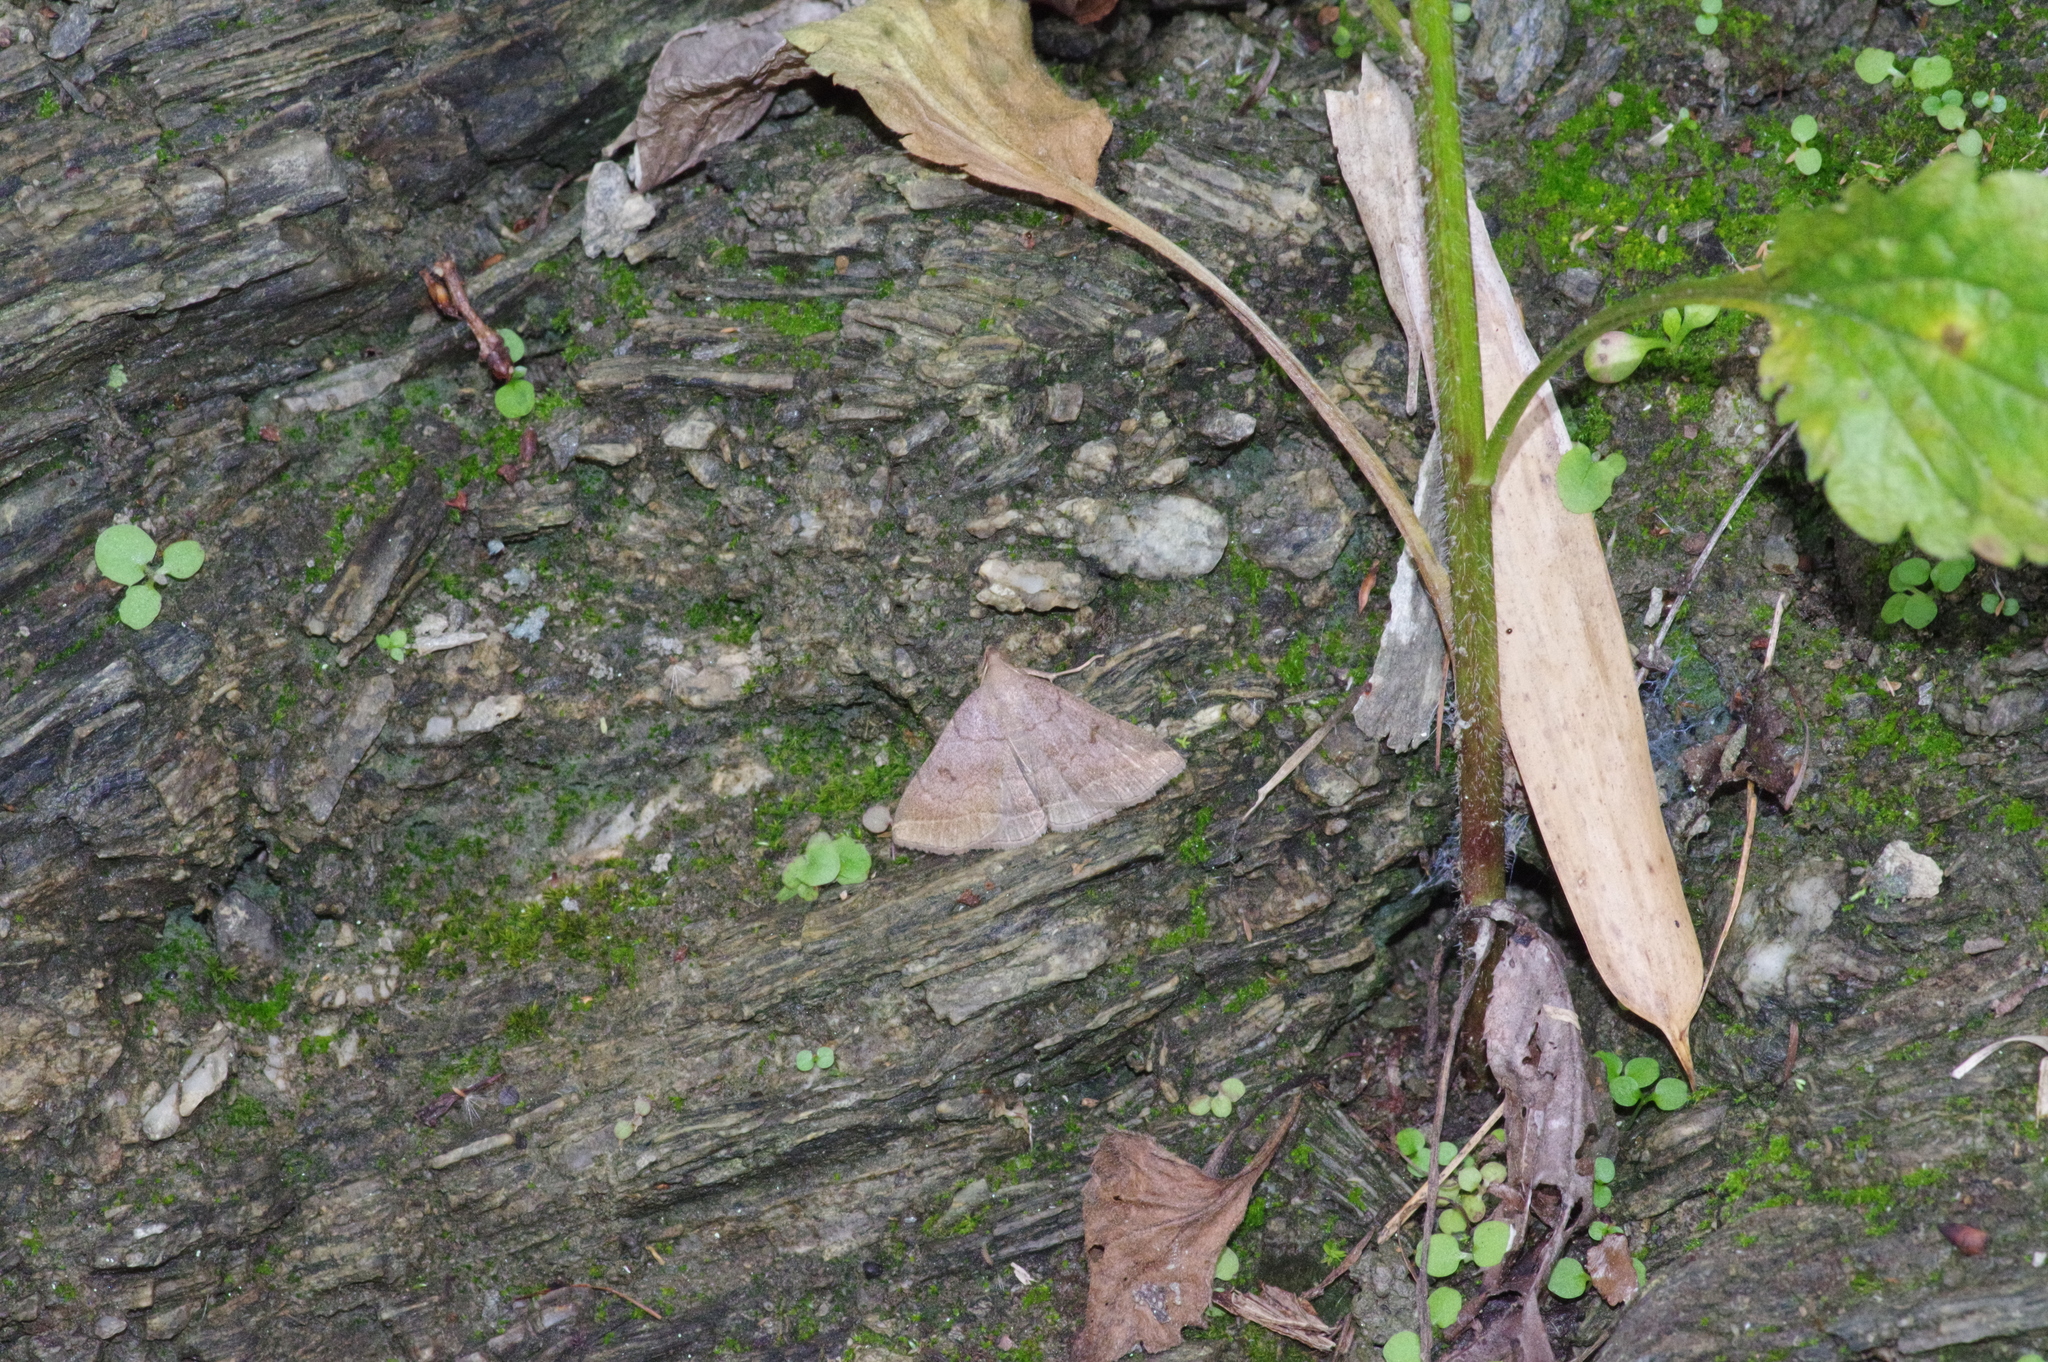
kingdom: Animalia
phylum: Arthropoda
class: Insecta
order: Lepidoptera
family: Erebidae
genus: Zanclognatha
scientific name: Zanclognatha lunalis
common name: Jubilee fan-foot
